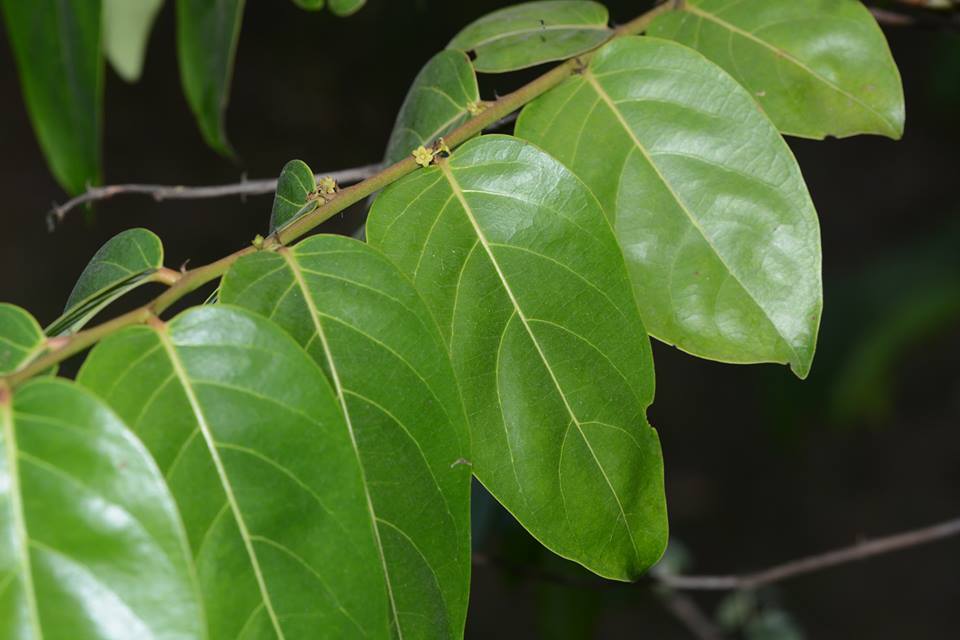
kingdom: Plantae
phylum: Tracheophyta
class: Magnoliopsida
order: Malpighiales
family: Phyllanthaceae
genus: Glochidion
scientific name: Glochidion zeylanicum
